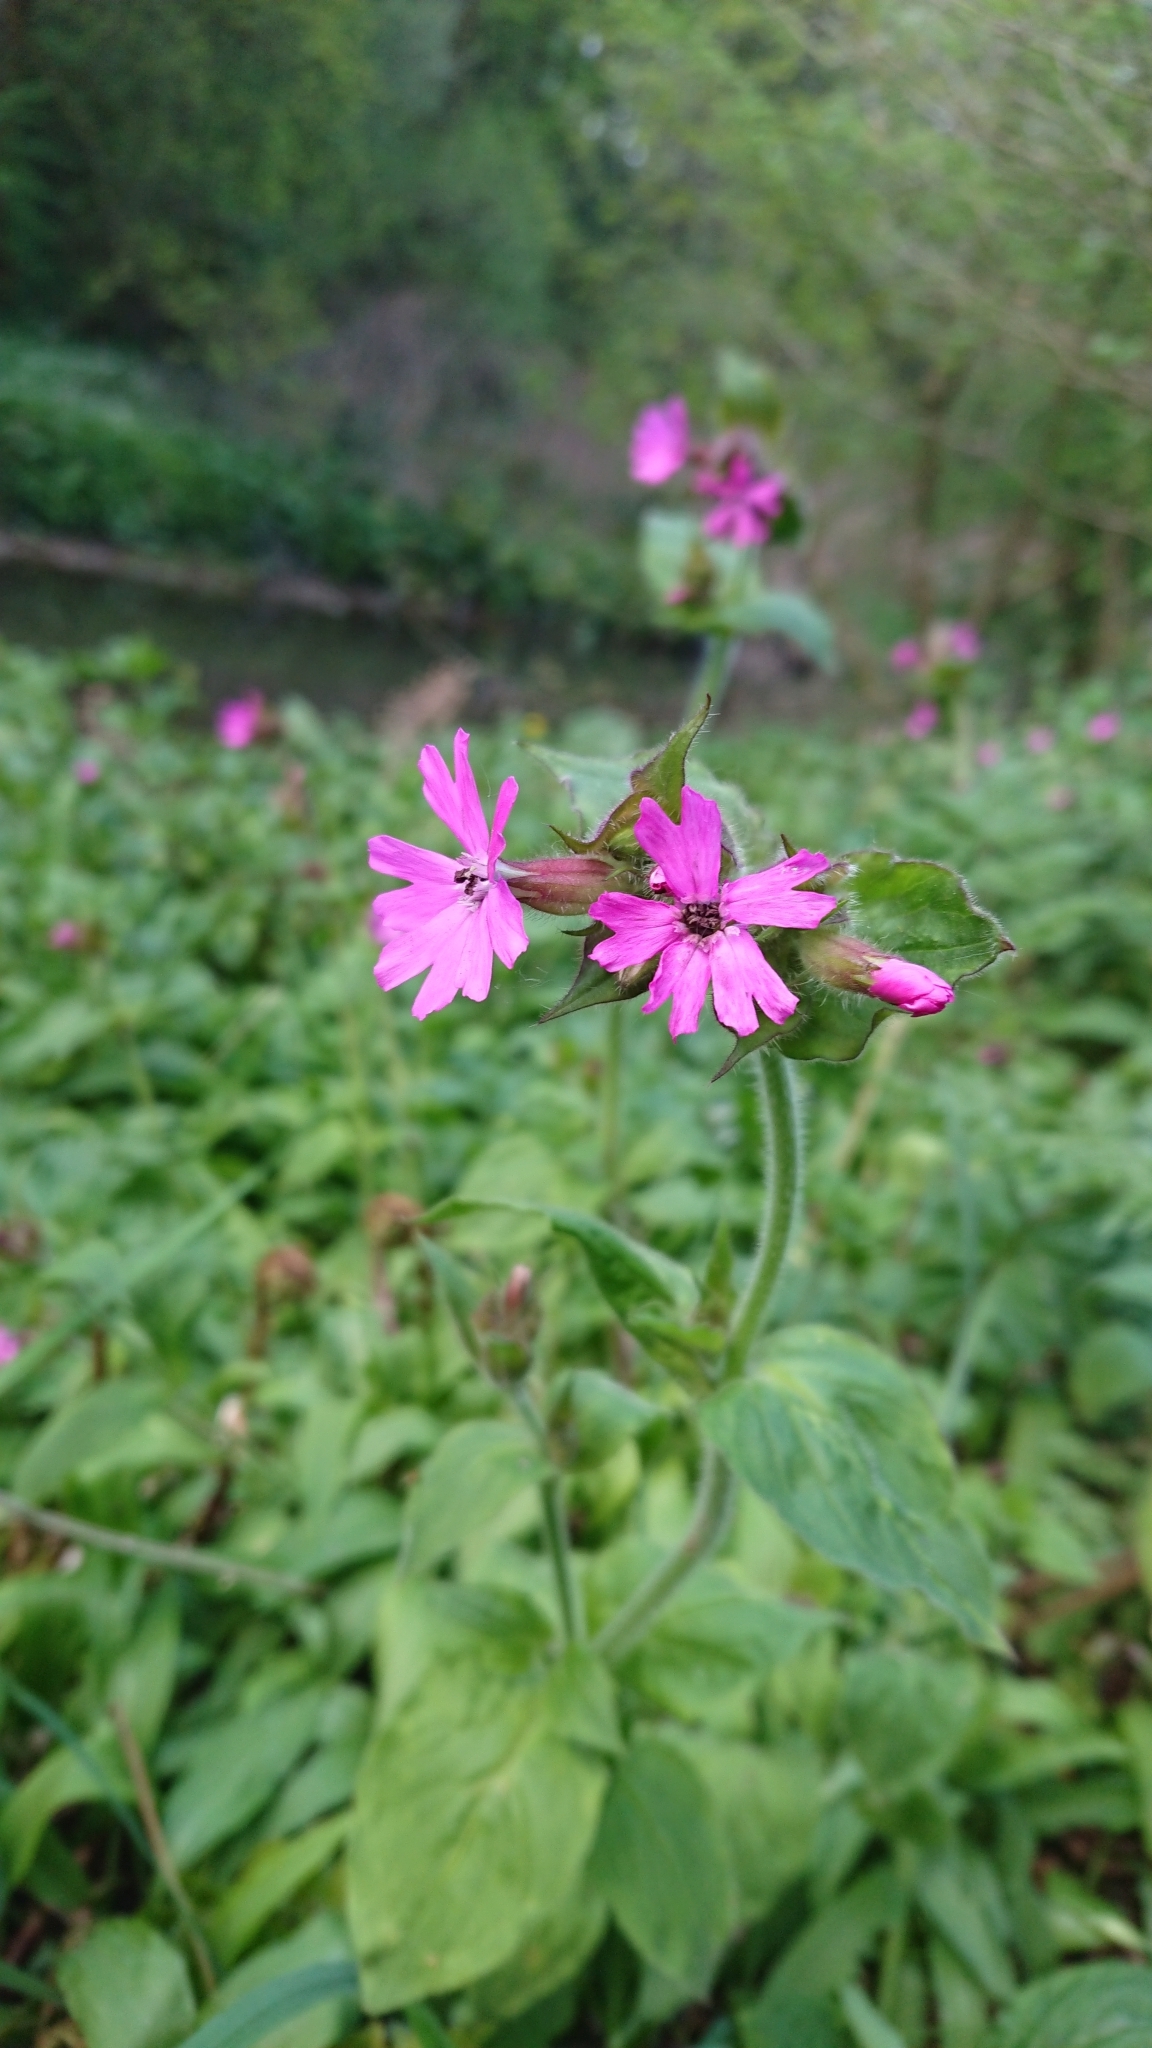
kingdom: Plantae
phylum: Tracheophyta
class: Magnoliopsida
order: Caryophyllales
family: Caryophyllaceae
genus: Silene
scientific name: Silene dioica
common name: Red campion
